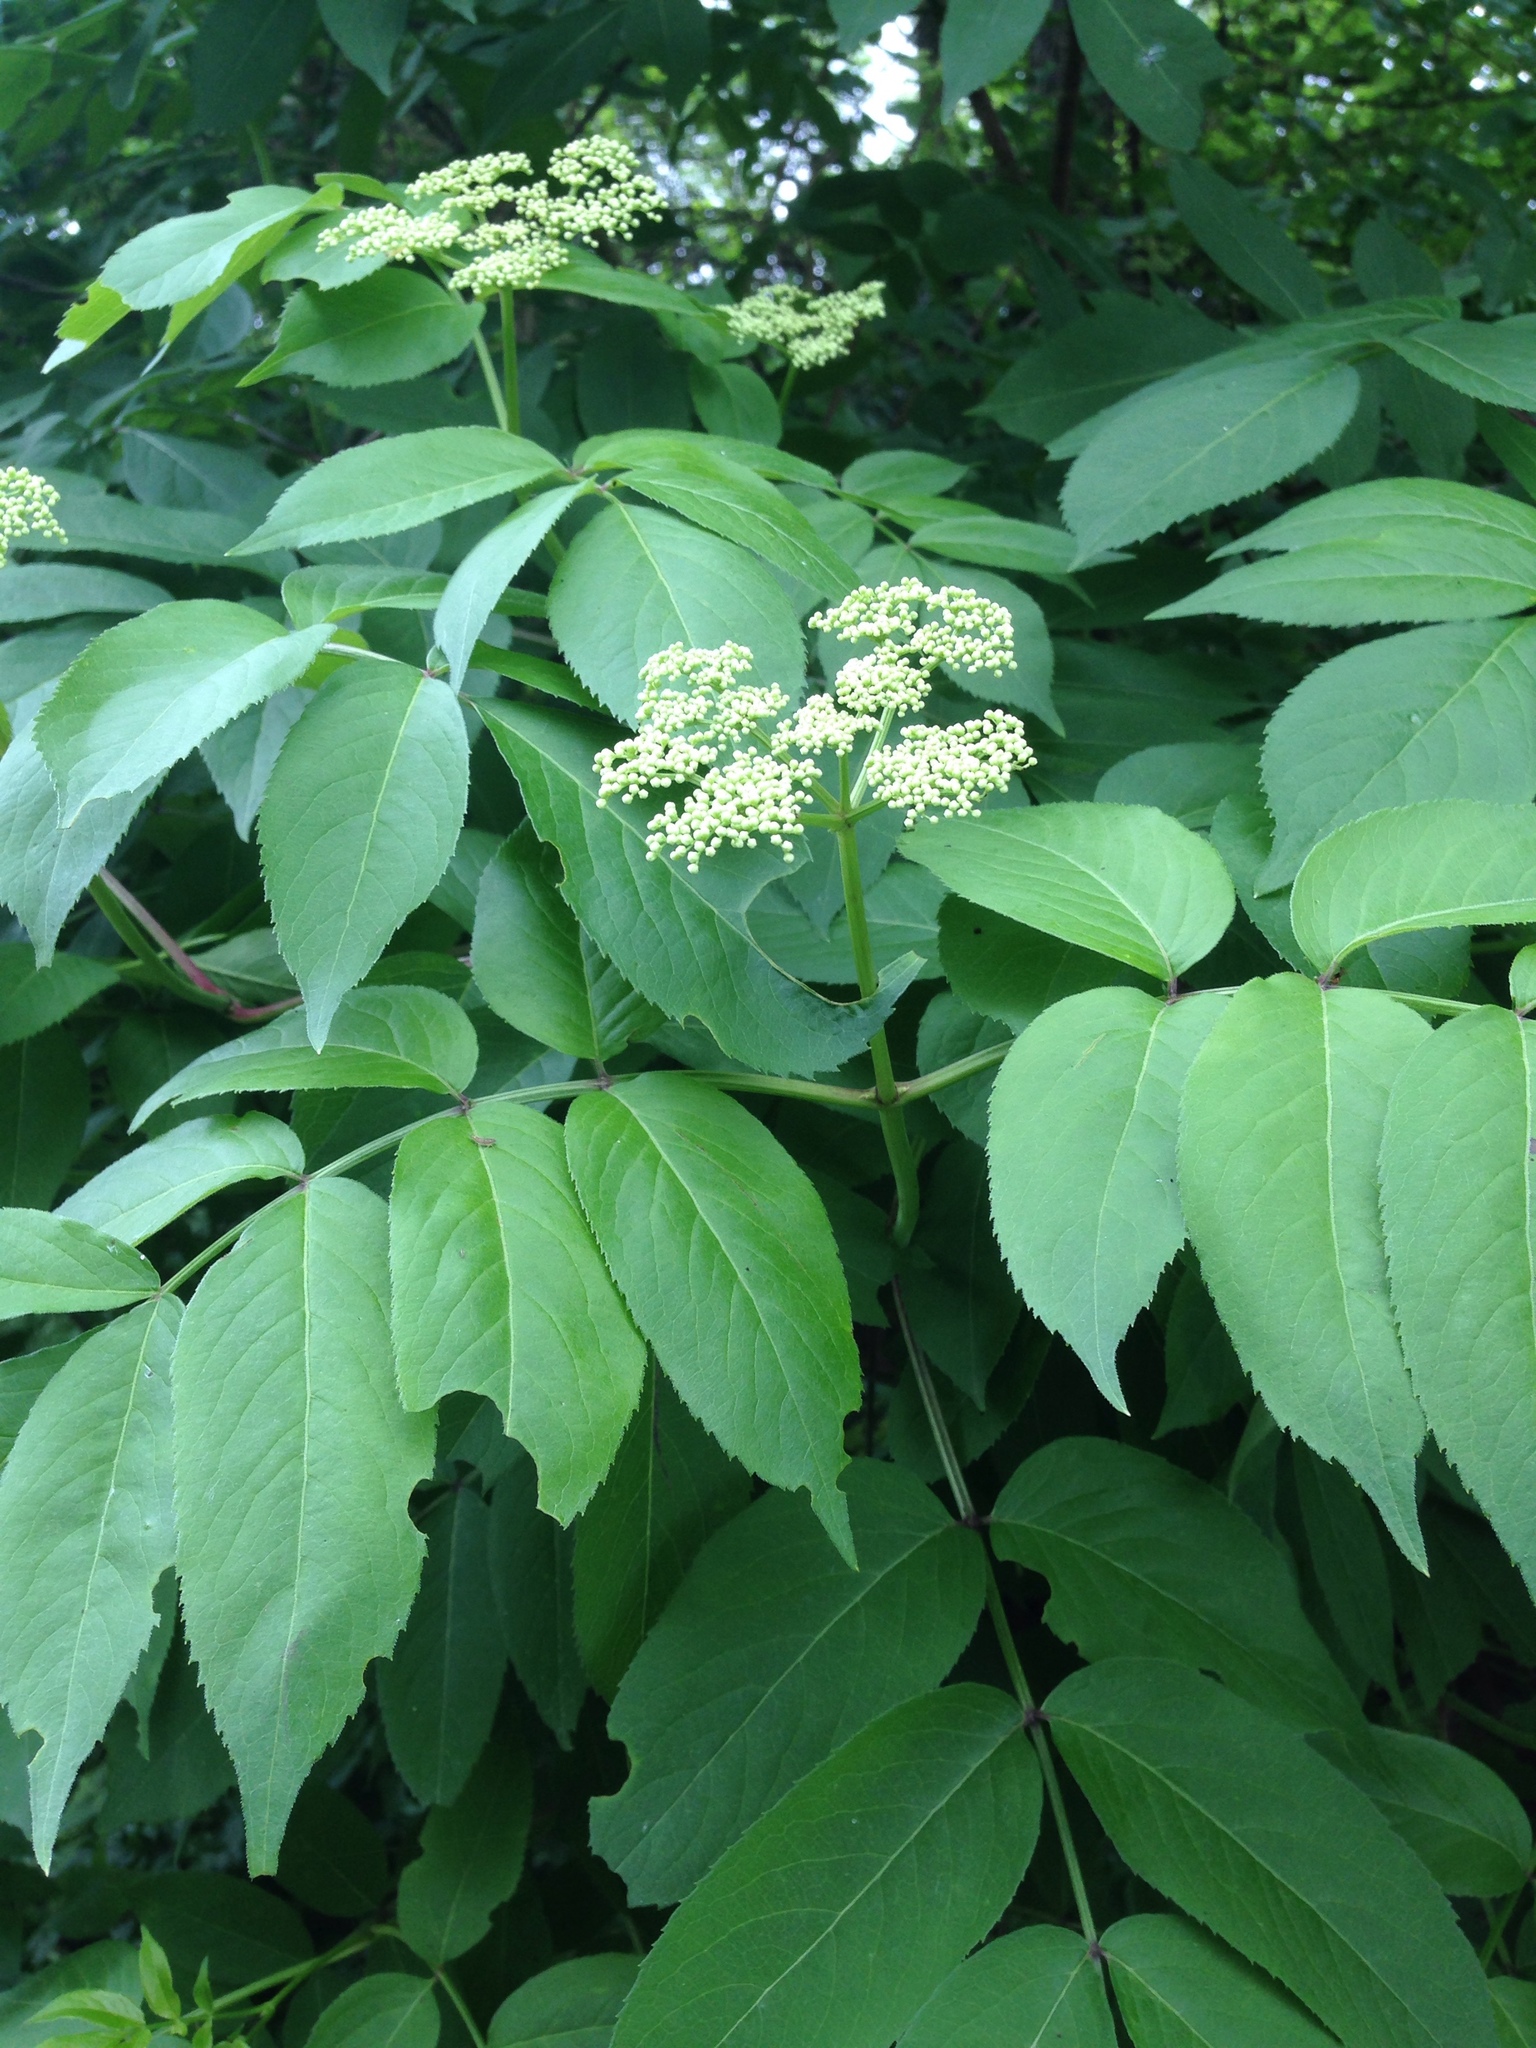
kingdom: Plantae
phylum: Tracheophyta
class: Magnoliopsida
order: Dipsacales
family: Viburnaceae
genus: Sambucus
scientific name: Sambucus canadensis
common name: American elder
